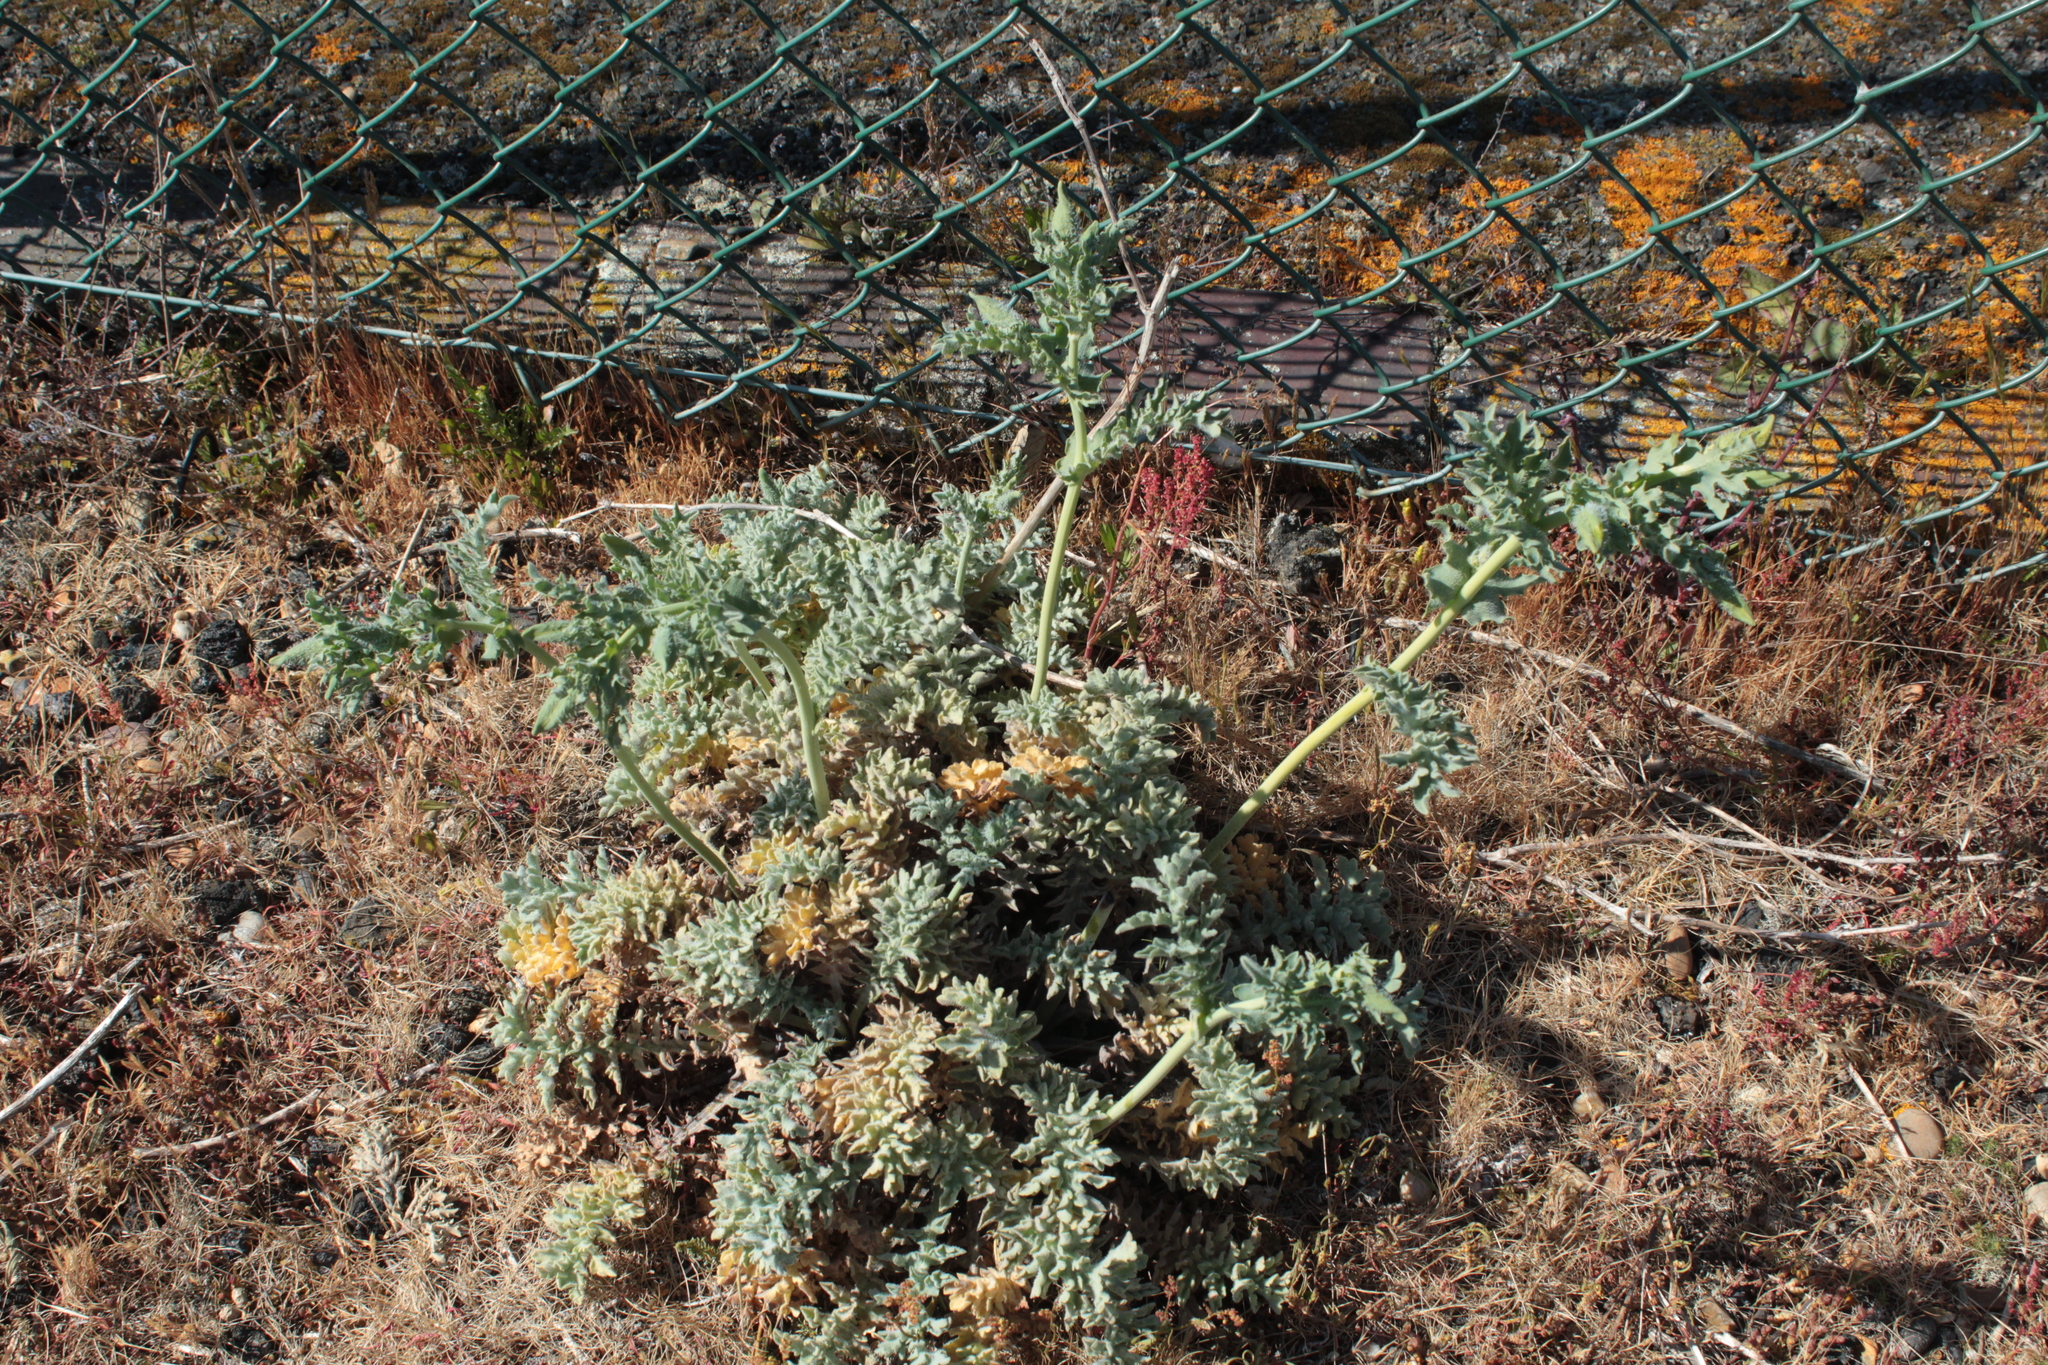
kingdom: Plantae
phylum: Tracheophyta
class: Magnoliopsida
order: Ranunculales
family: Papaveraceae
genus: Glaucium
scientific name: Glaucium flavum
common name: Yellow horned-poppy
